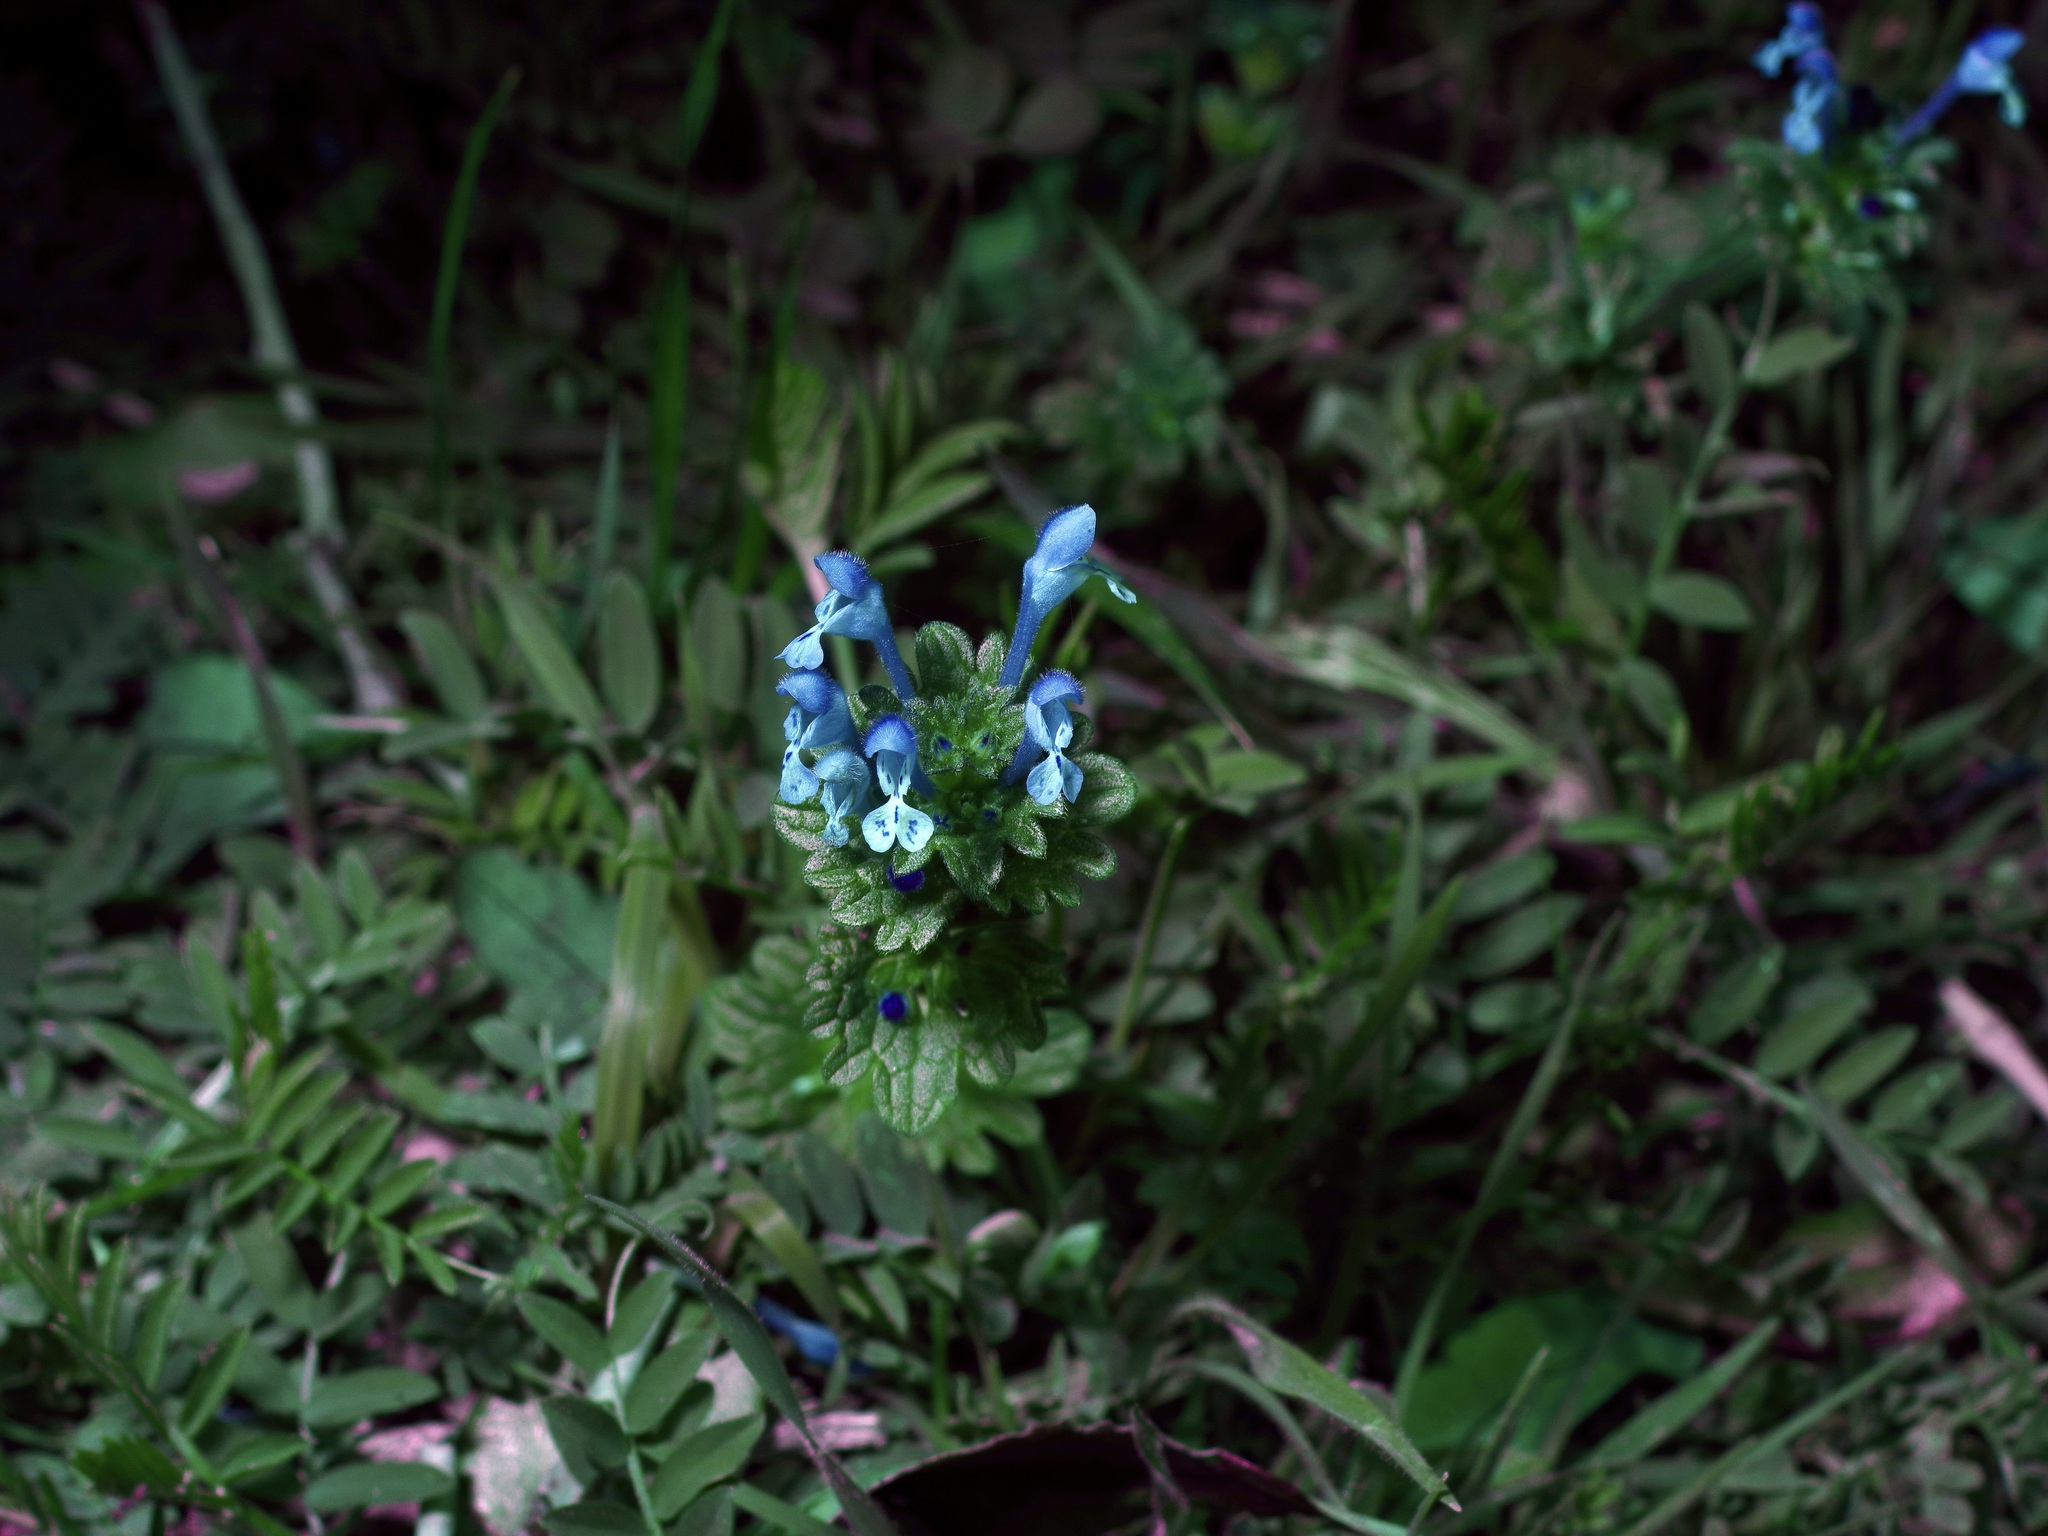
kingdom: Plantae
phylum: Tracheophyta
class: Magnoliopsida
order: Lamiales
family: Lamiaceae
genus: Lamium
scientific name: Lamium amplexicaule
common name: Henbit dead-nettle
